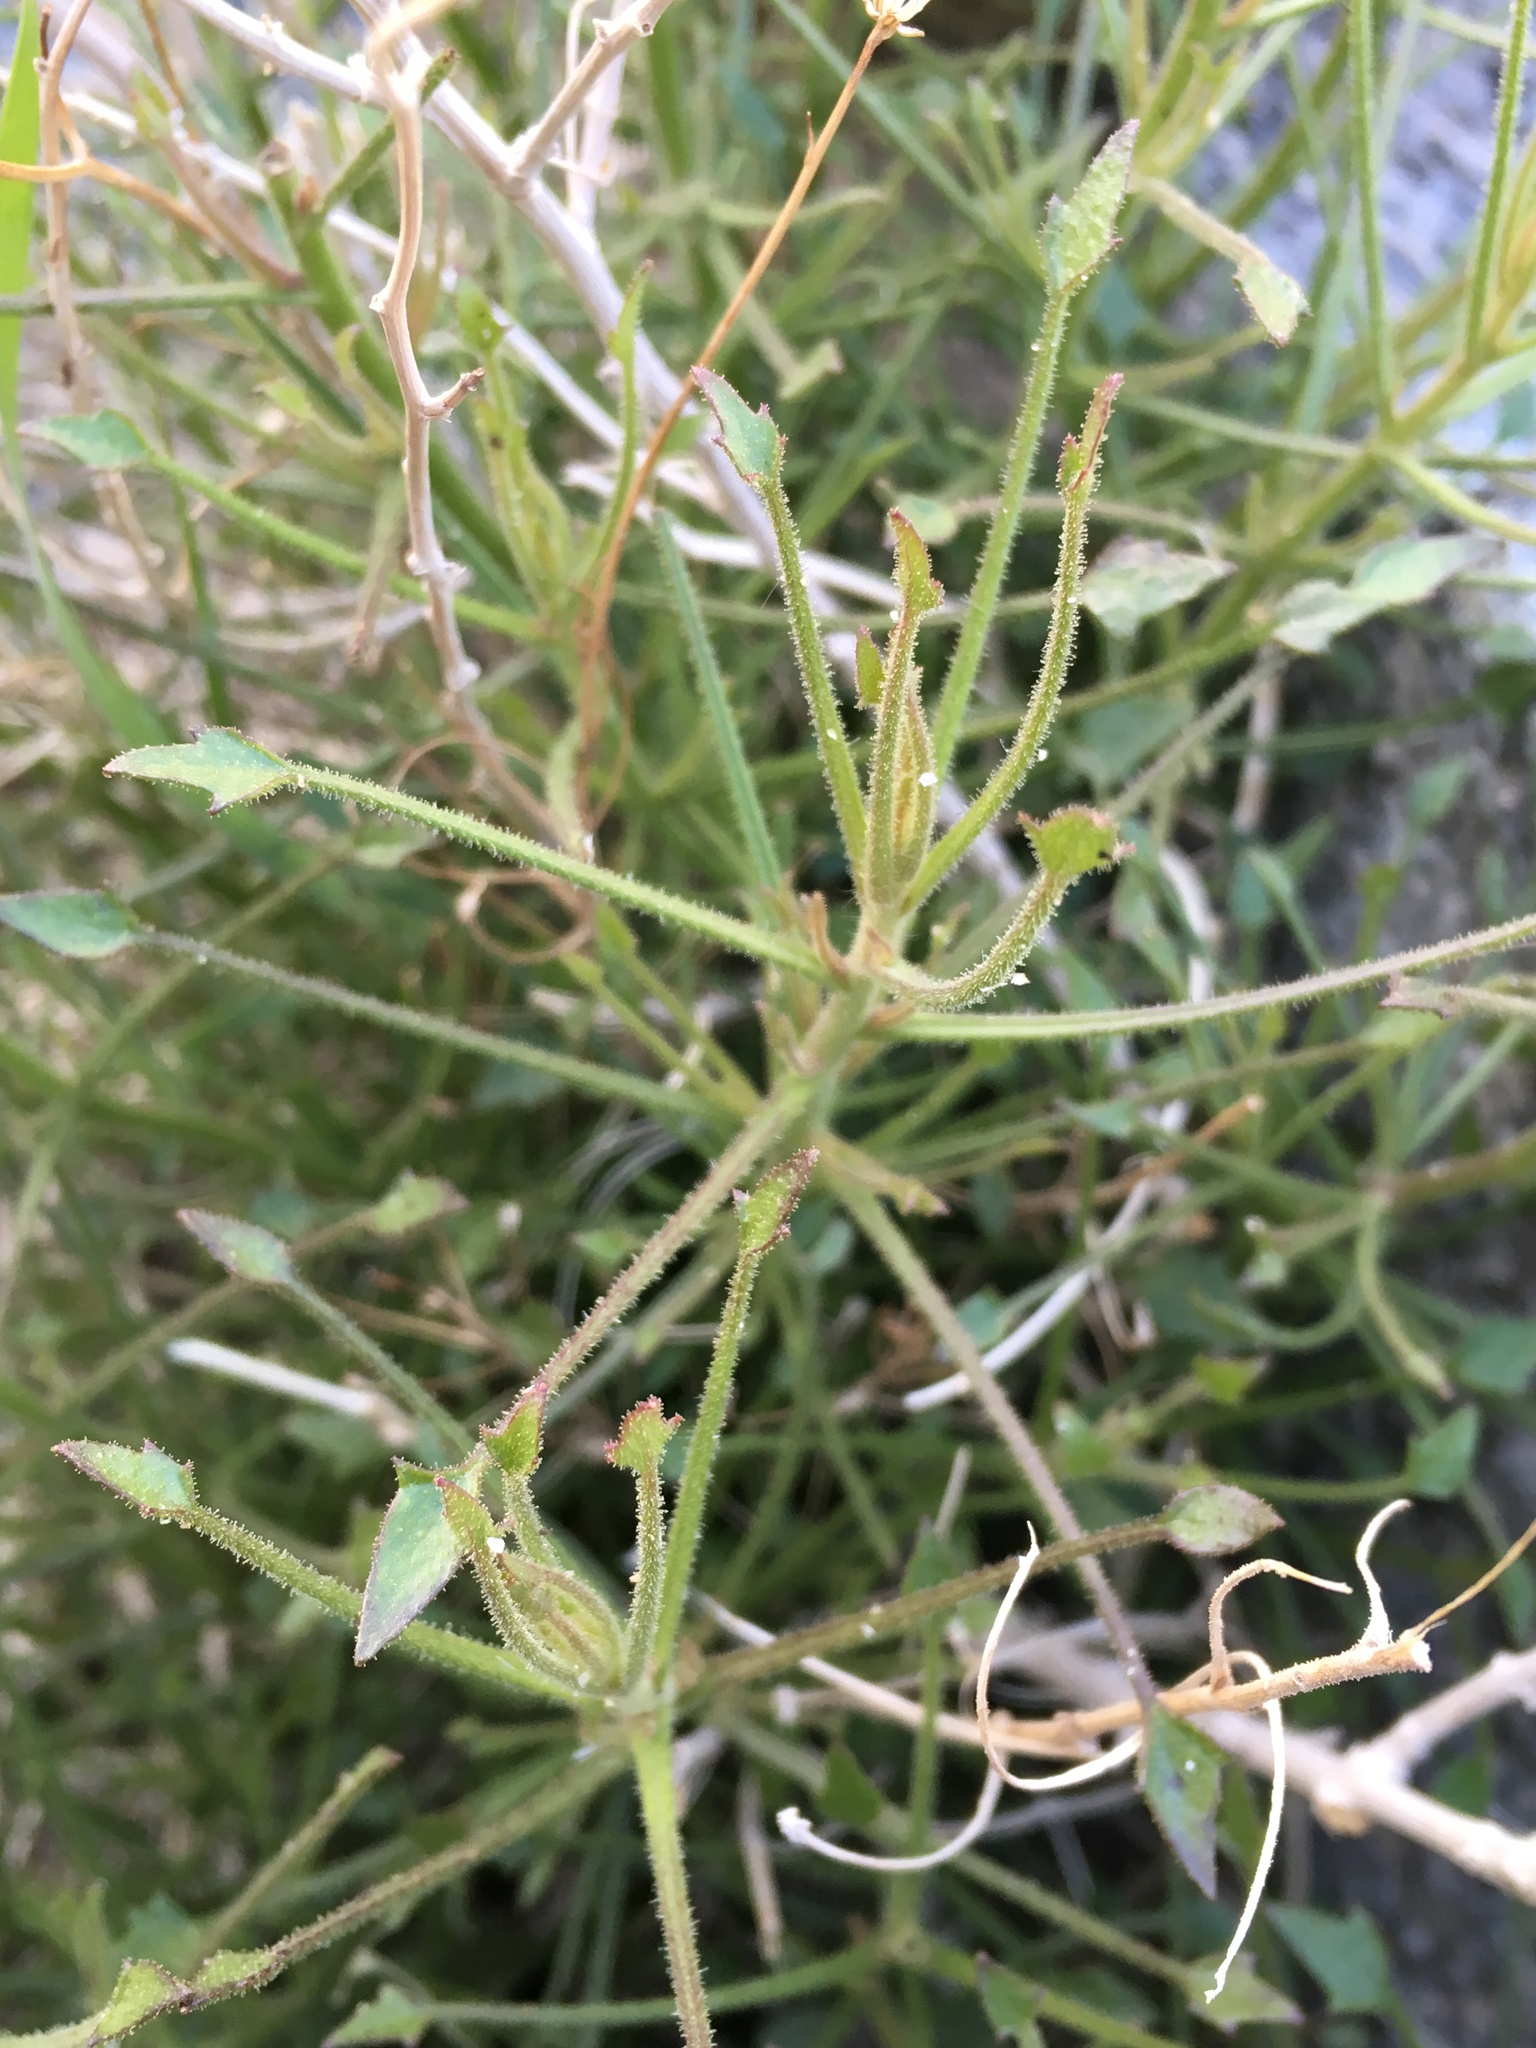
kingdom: Plantae
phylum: Tracheophyta
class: Magnoliopsida
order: Asterales
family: Asteraceae
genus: Pleurocoronis
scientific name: Pleurocoronis pluriseta
